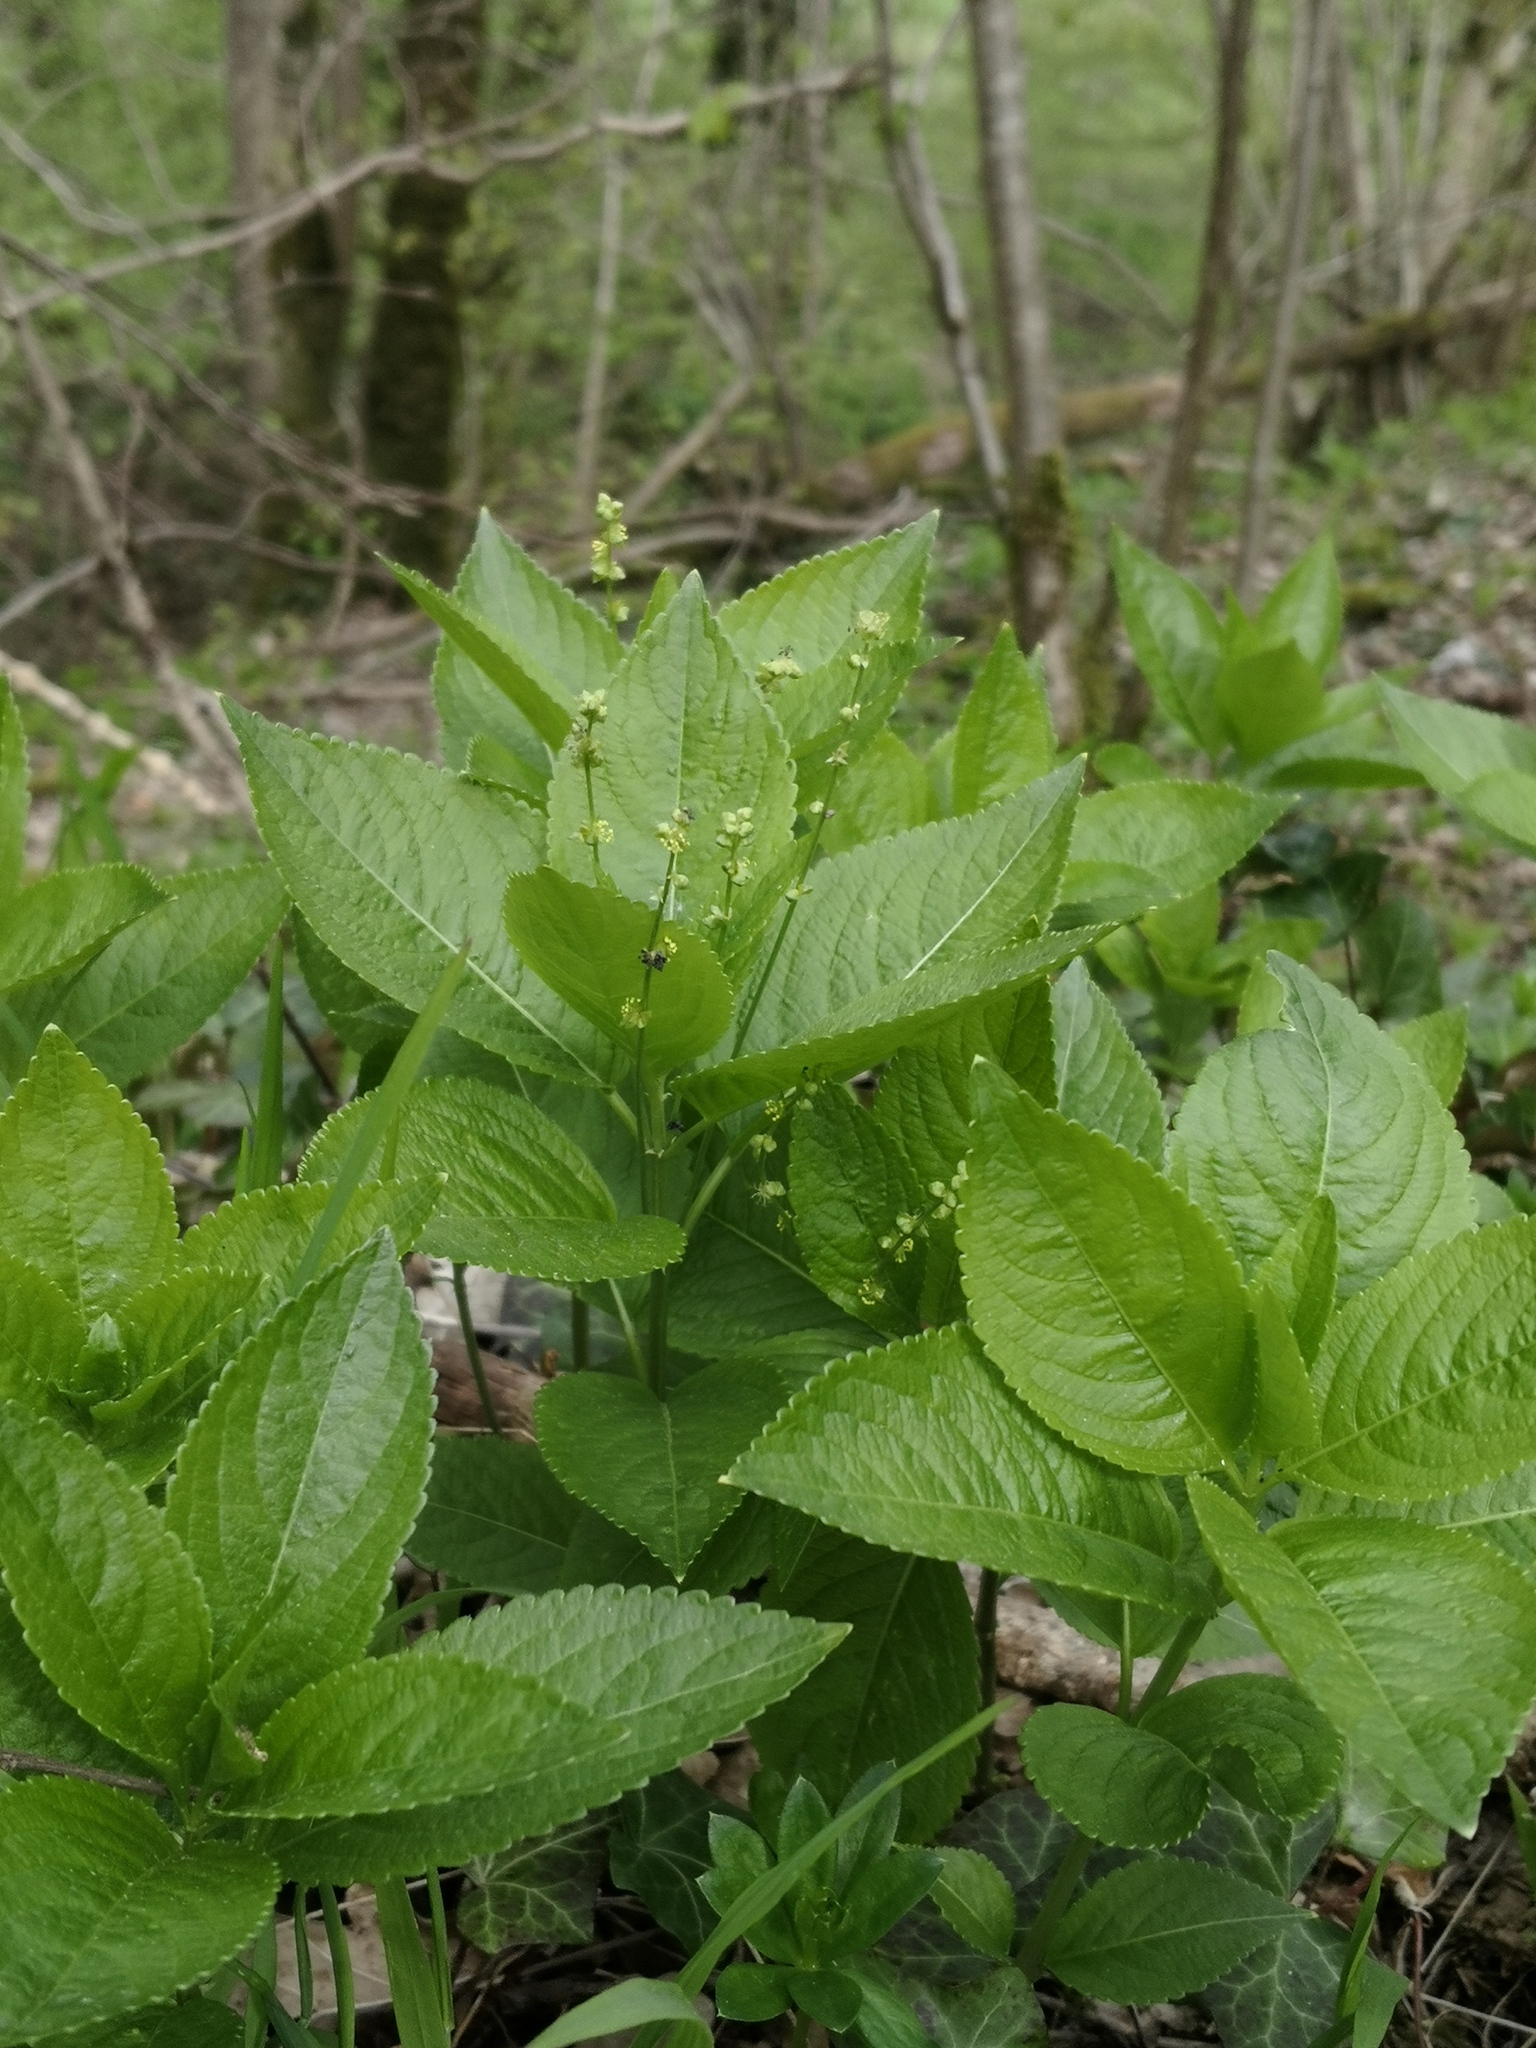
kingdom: Plantae
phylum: Tracheophyta
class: Magnoliopsida
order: Malpighiales
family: Euphorbiaceae
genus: Mercurialis
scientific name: Mercurialis perennis
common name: Dog mercury
